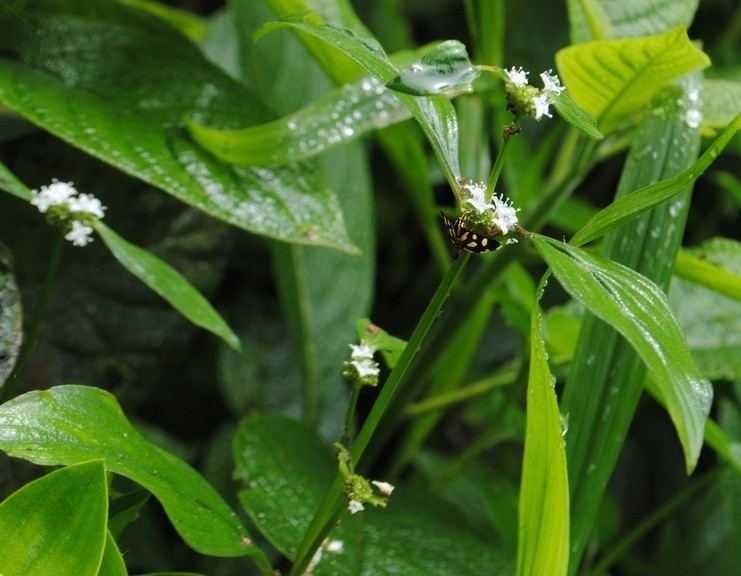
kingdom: Plantae
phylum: Tracheophyta
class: Magnoliopsida
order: Gentianales
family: Rubiaceae
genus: Spermacoce
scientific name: Spermacoce remota
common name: Woodland false buttonweed
